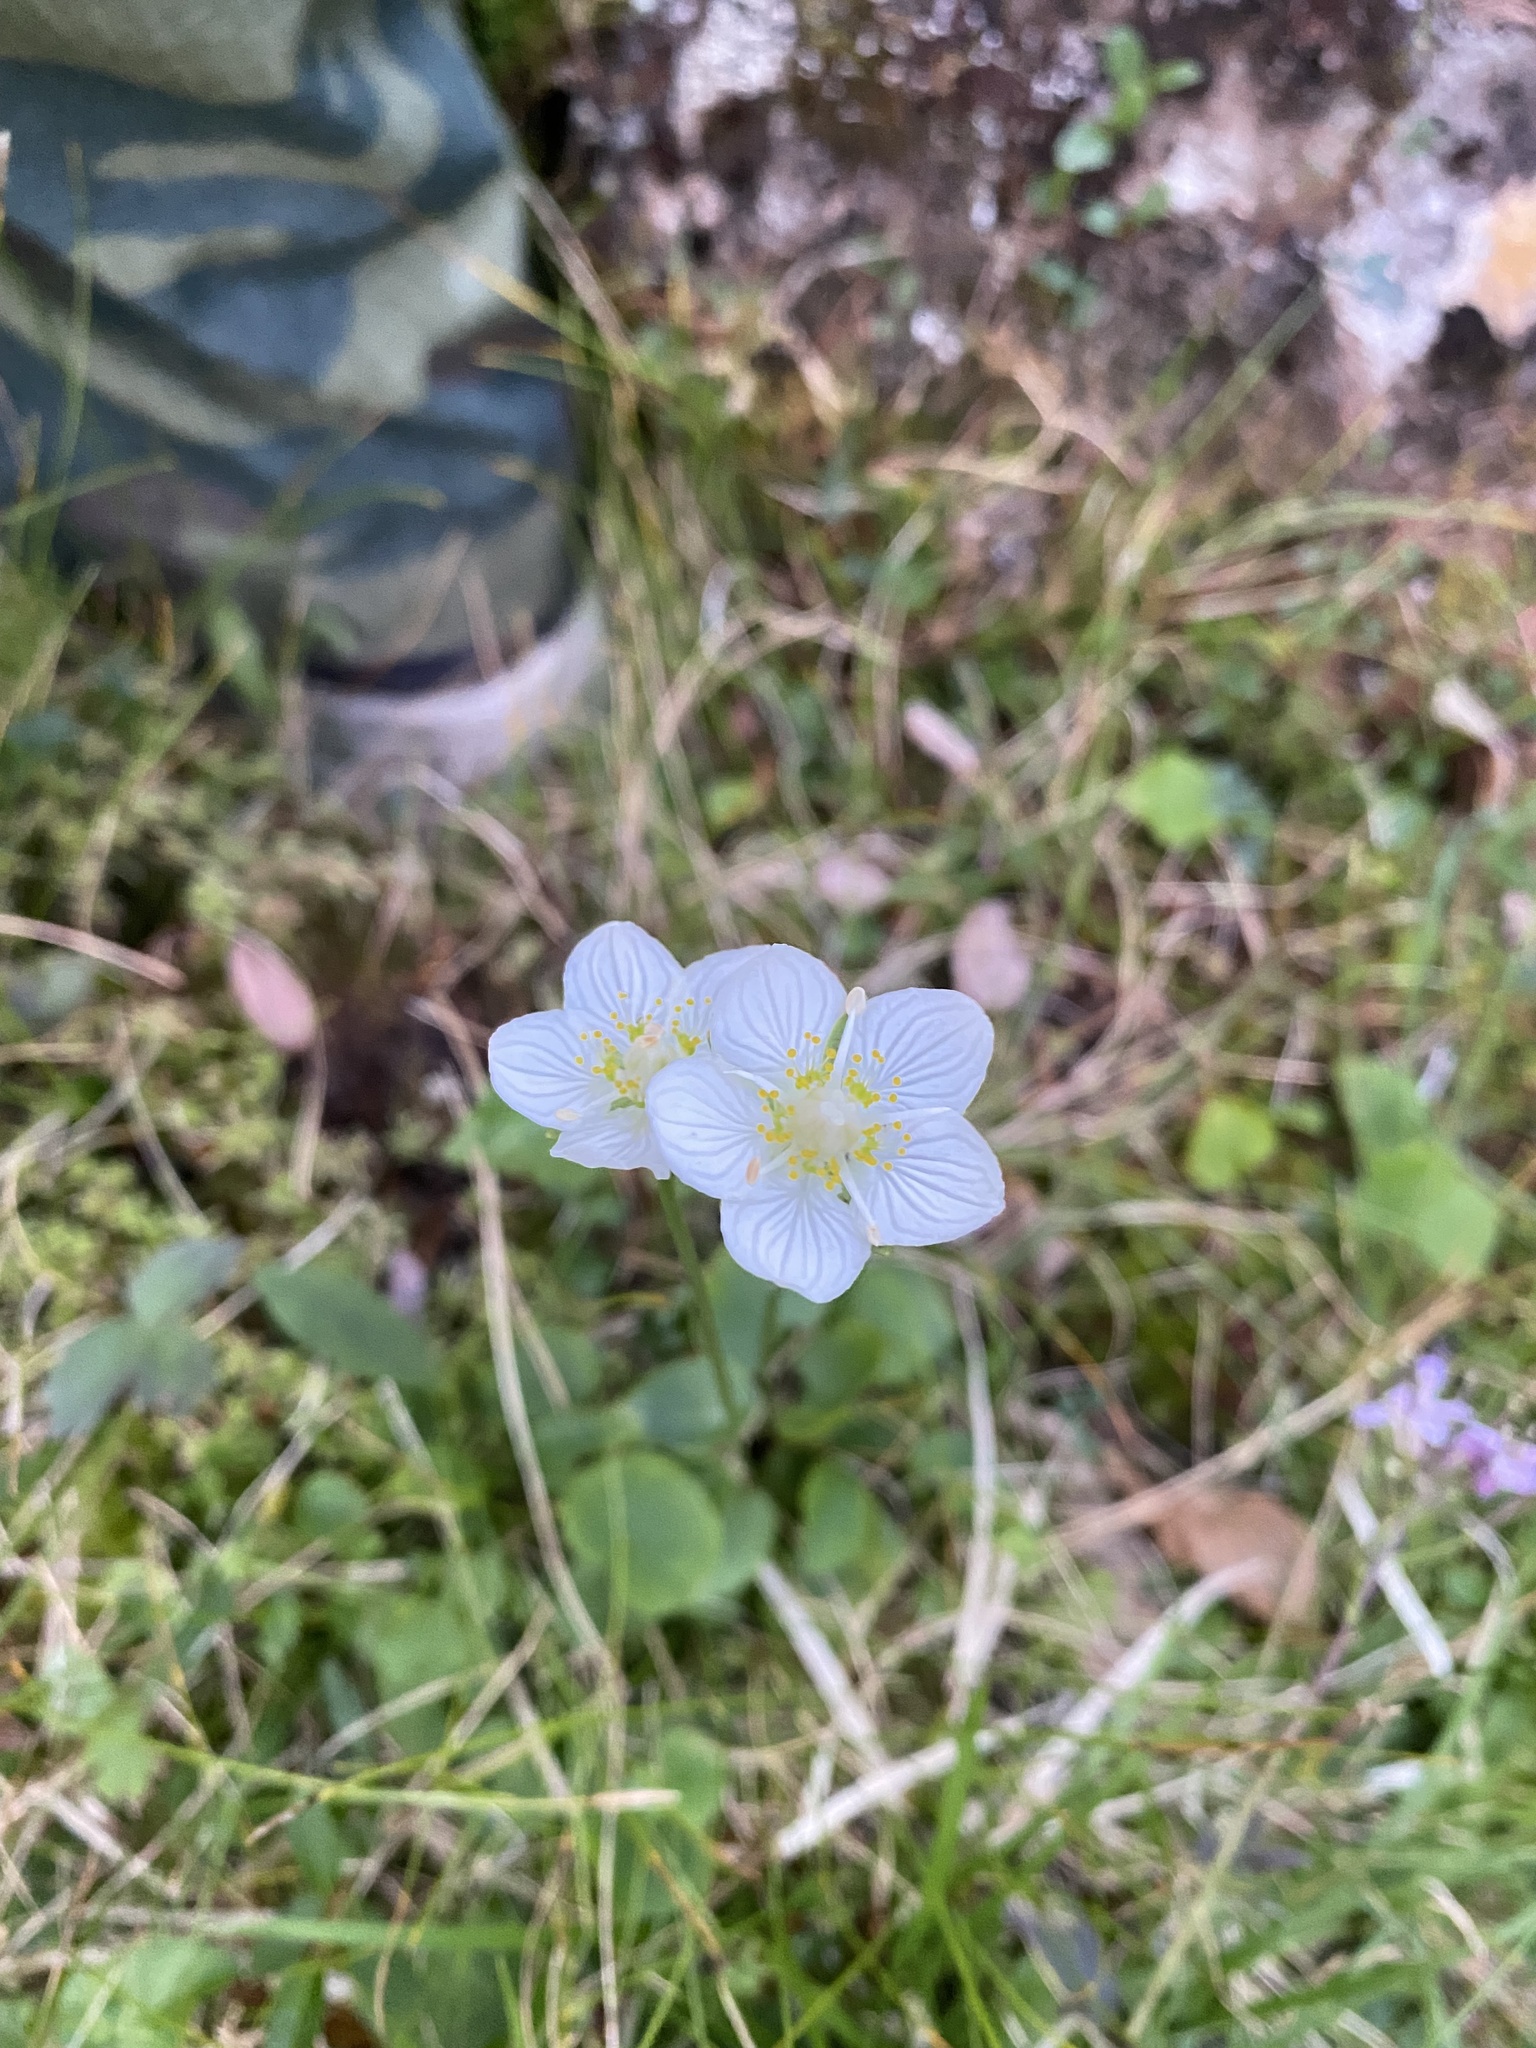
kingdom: Plantae
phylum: Tracheophyta
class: Magnoliopsida
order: Celastrales
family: Parnassiaceae
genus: Parnassia
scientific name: Parnassia palustris
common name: Grass-of-parnassus
